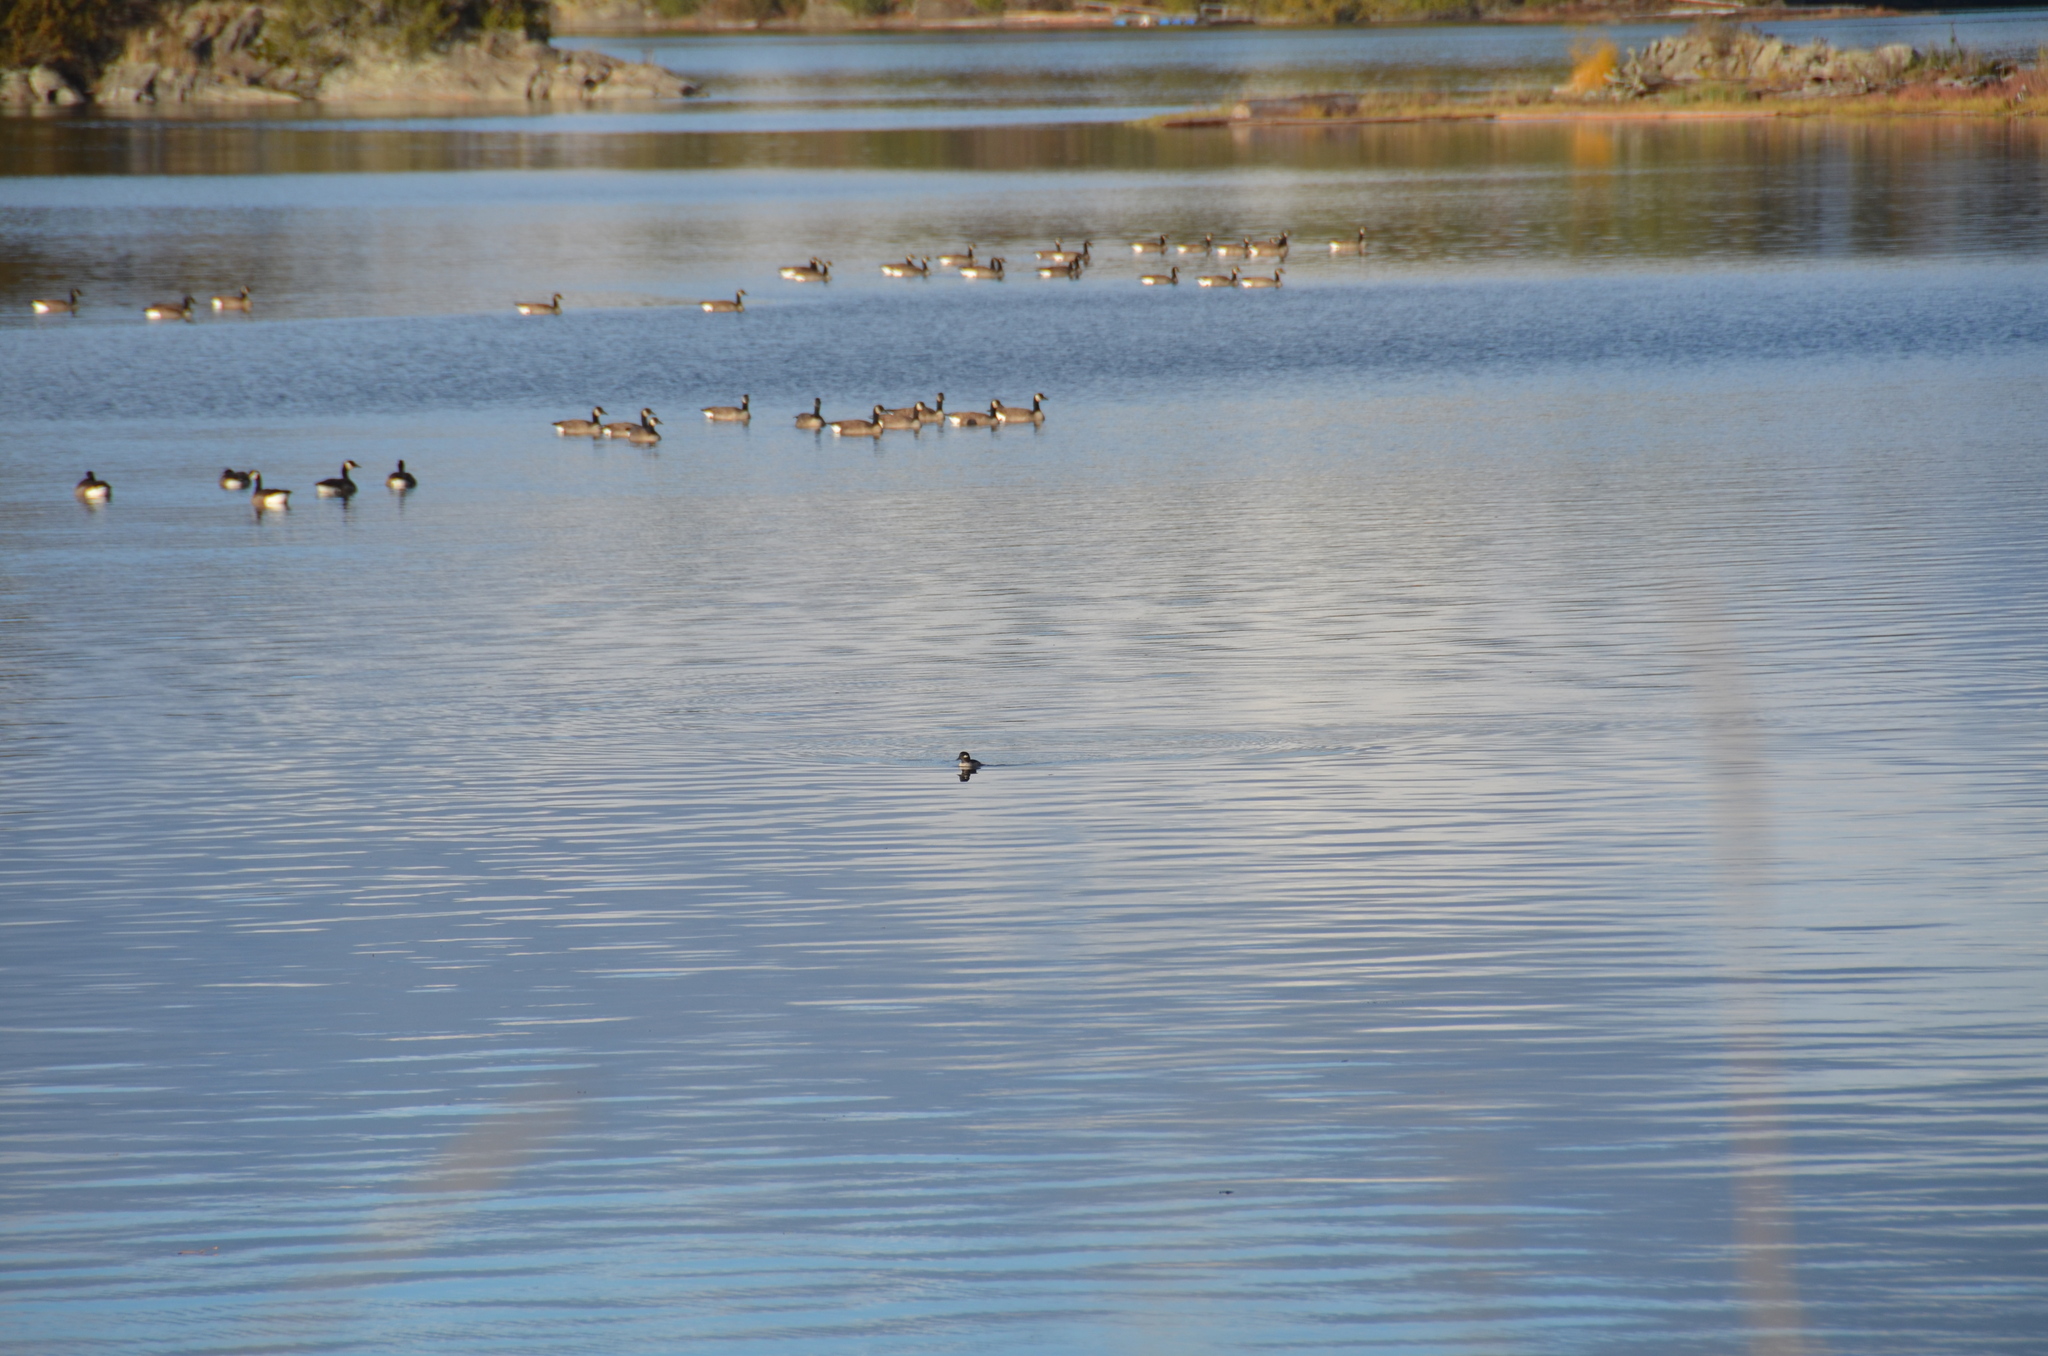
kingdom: Animalia
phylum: Chordata
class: Aves
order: Anseriformes
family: Anatidae
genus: Bucephala
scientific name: Bucephala albeola
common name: Bufflehead
